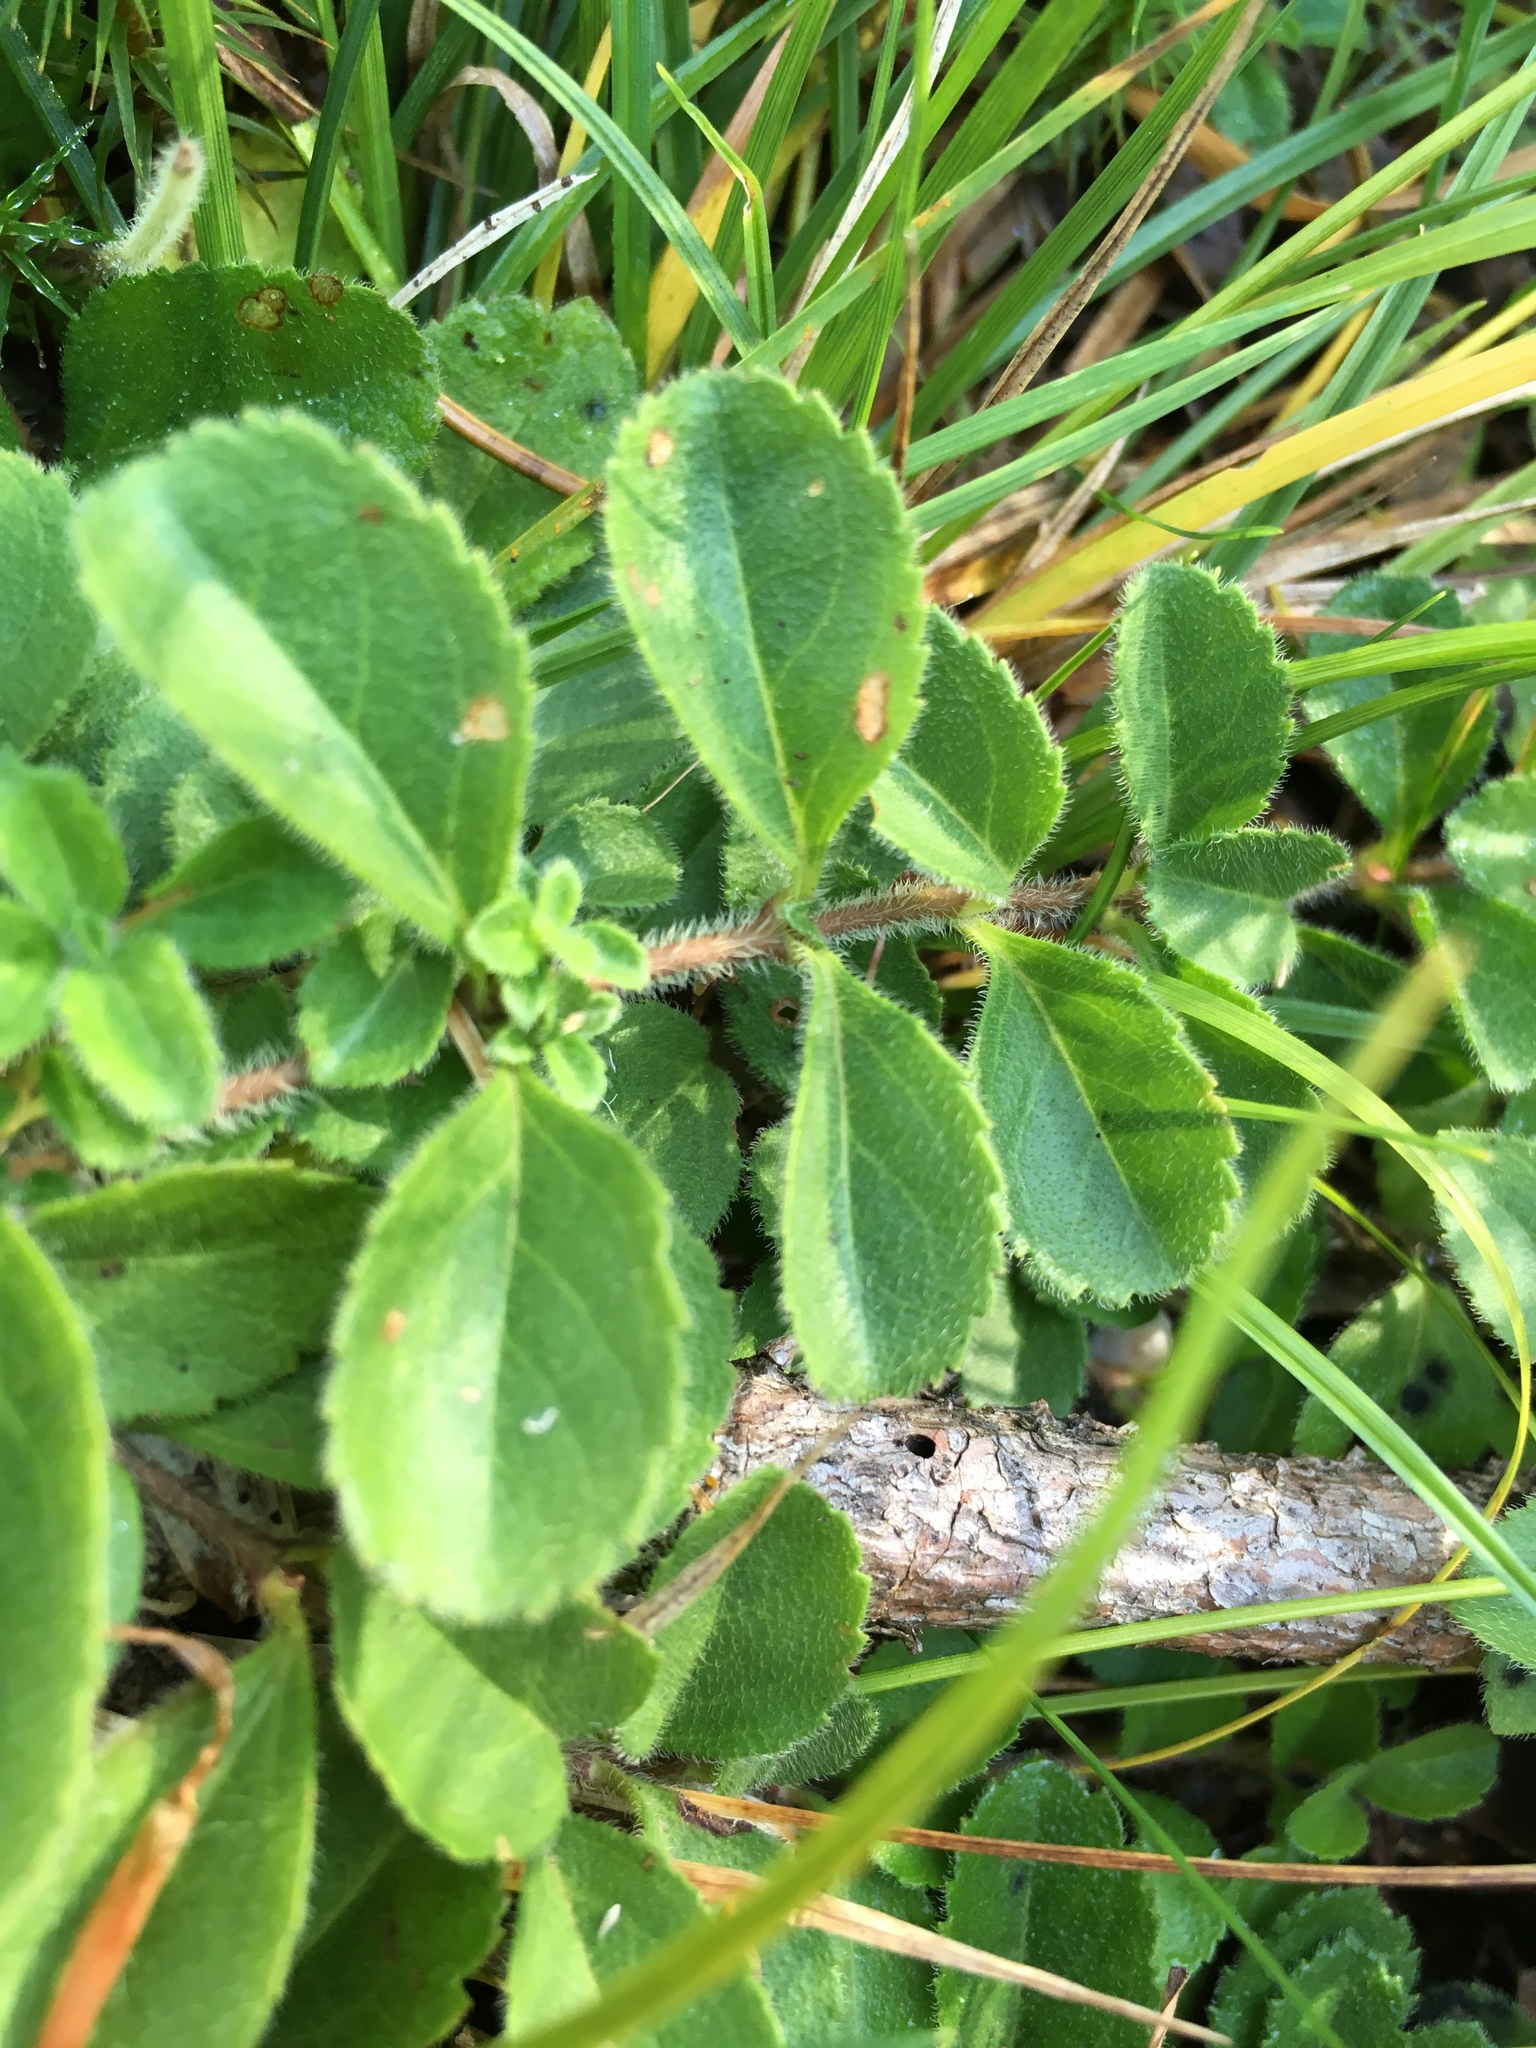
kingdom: Plantae
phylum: Tracheophyta
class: Magnoliopsida
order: Lamiales
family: Plantaginaceae
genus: Veronica
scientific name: Veronica officinalis
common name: Common speedwell
